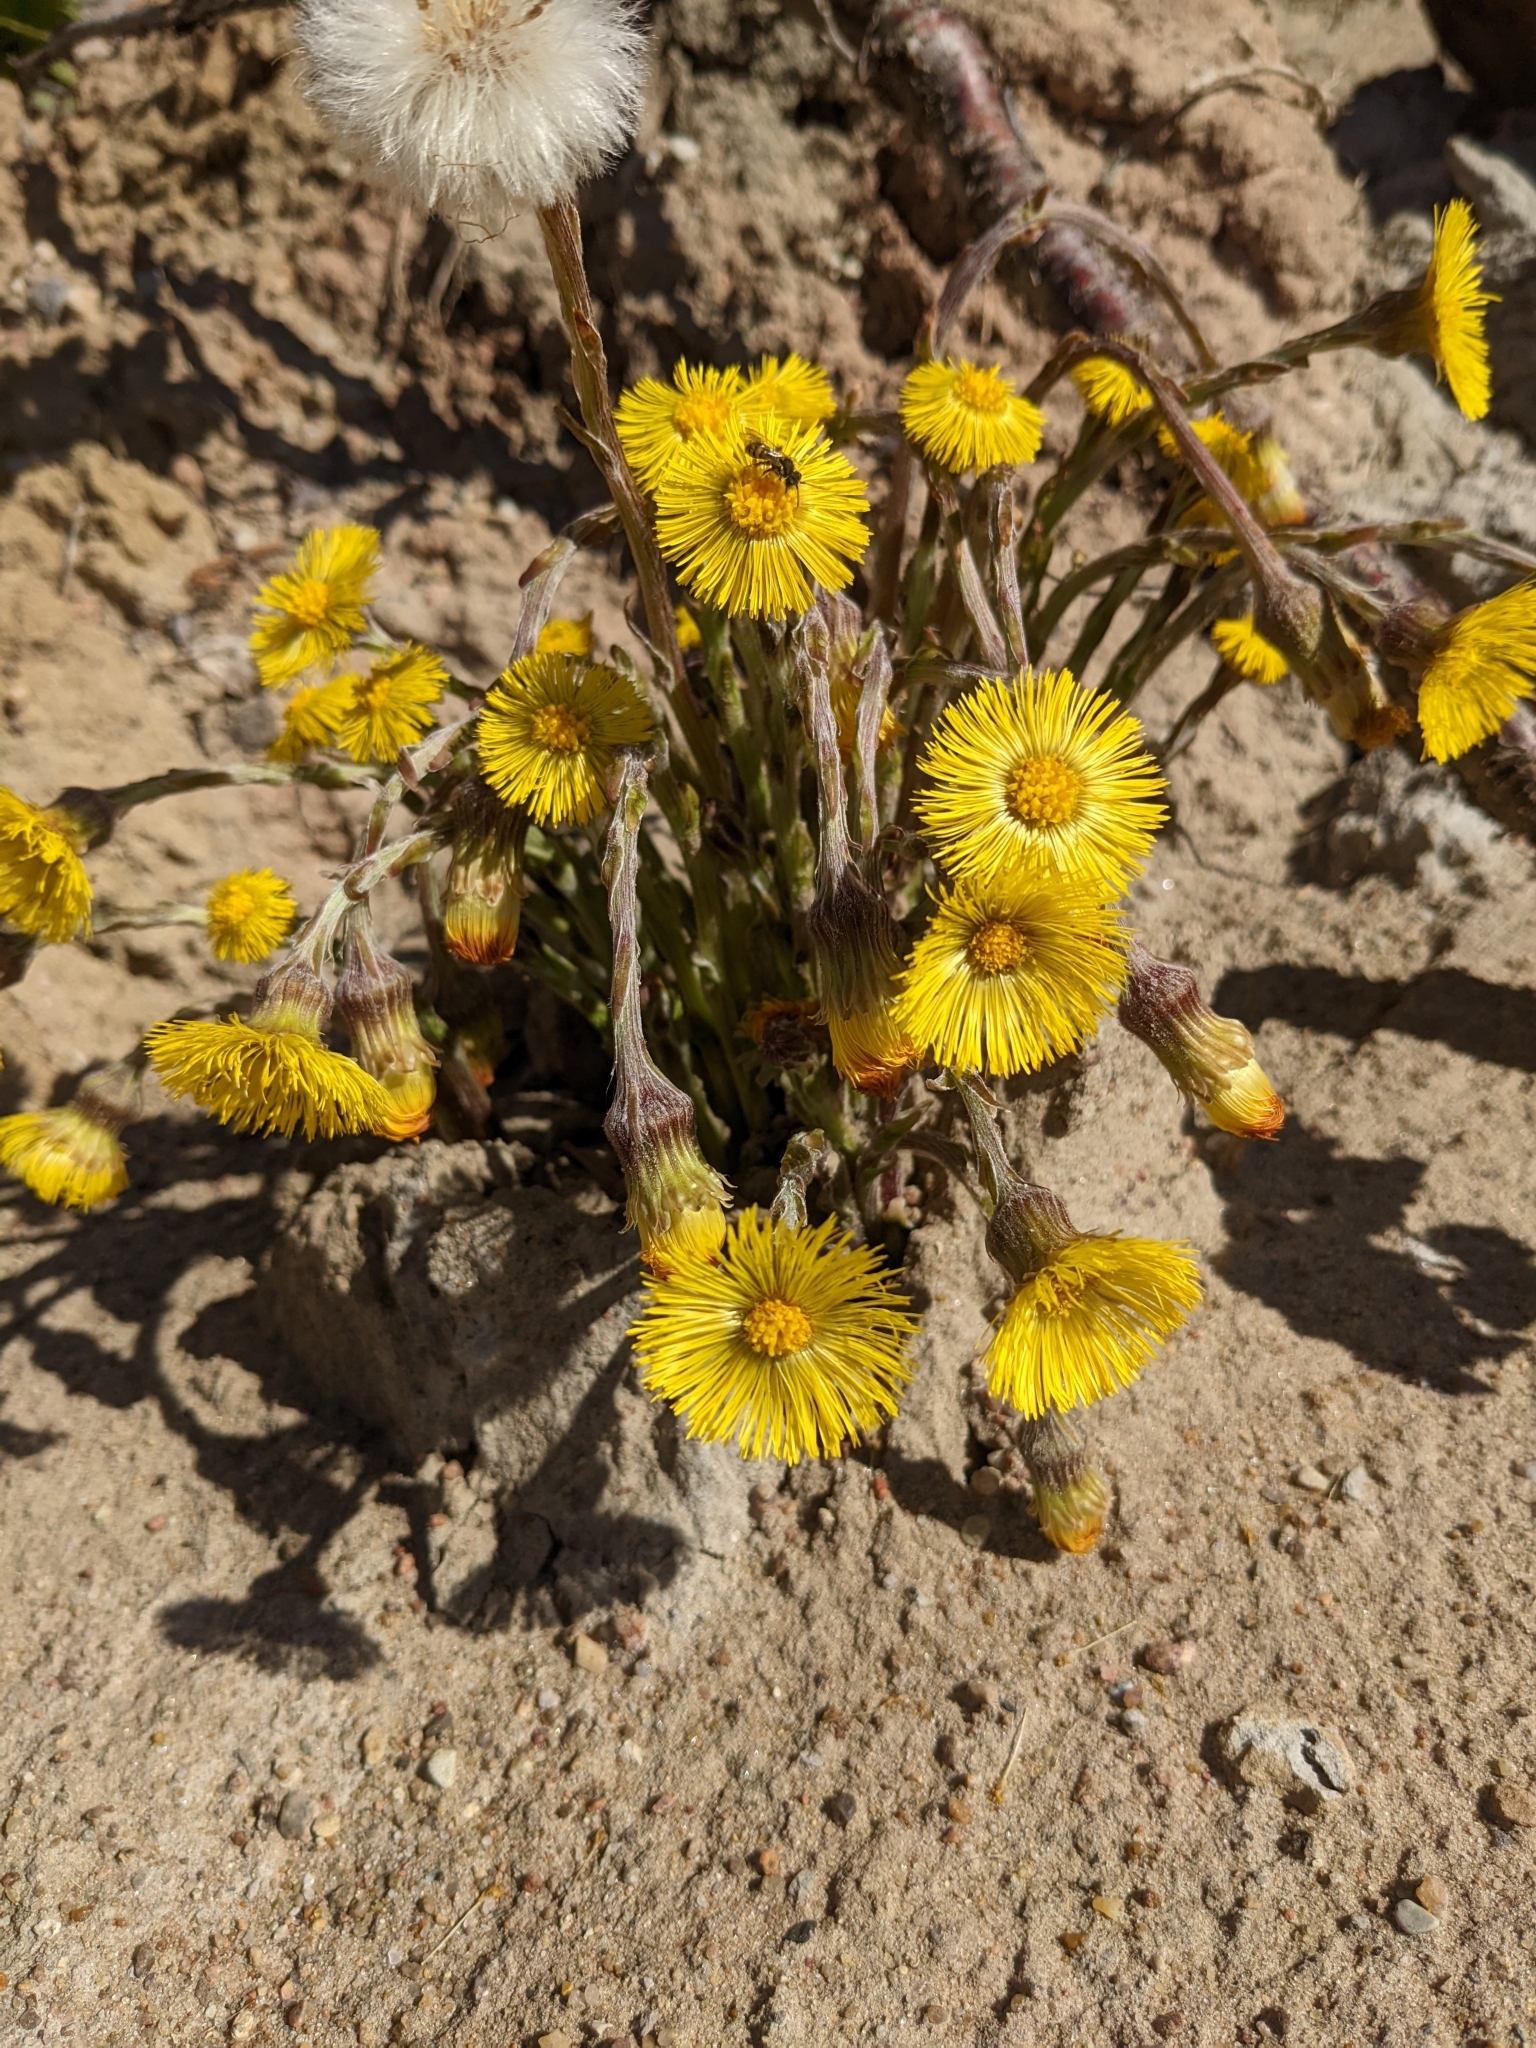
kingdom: Plantae
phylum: Tracheophyta
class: Magnoliopsida
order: Asterales
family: Asteraceae
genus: Tussilago
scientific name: Tussilago farfara
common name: Coltsfoot
